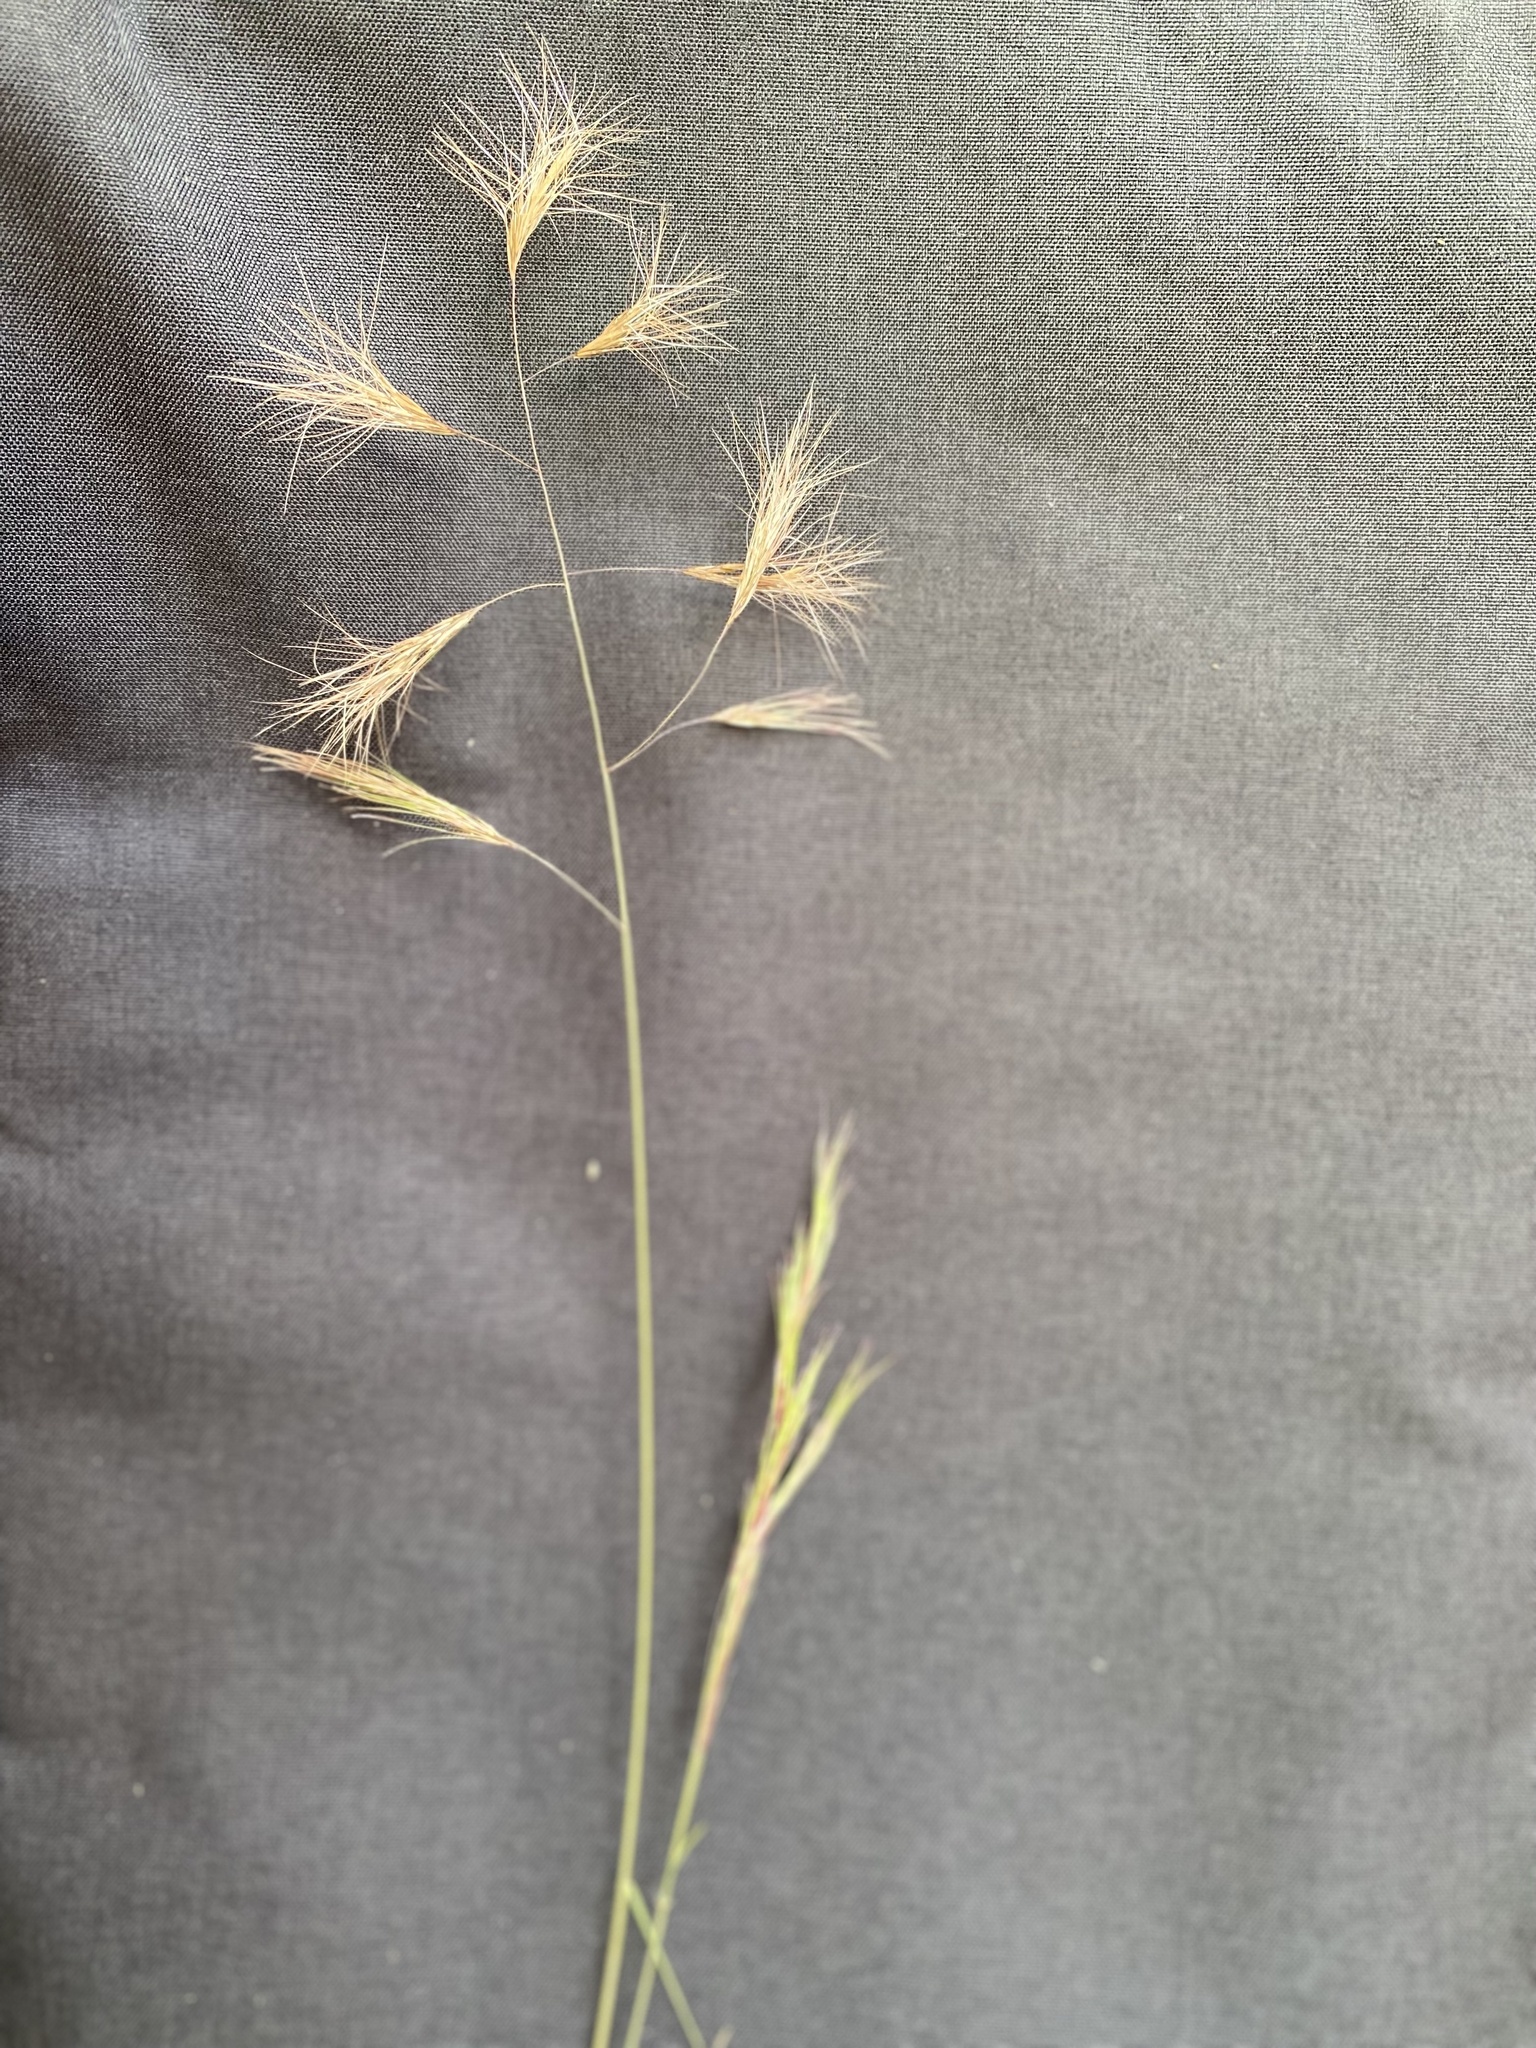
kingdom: Plantae
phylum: Tracheophyta
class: Liliopsida
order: Poales
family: Poaceae
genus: Aristida
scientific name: Aristida barbicollis
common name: Spreading prickle grass
